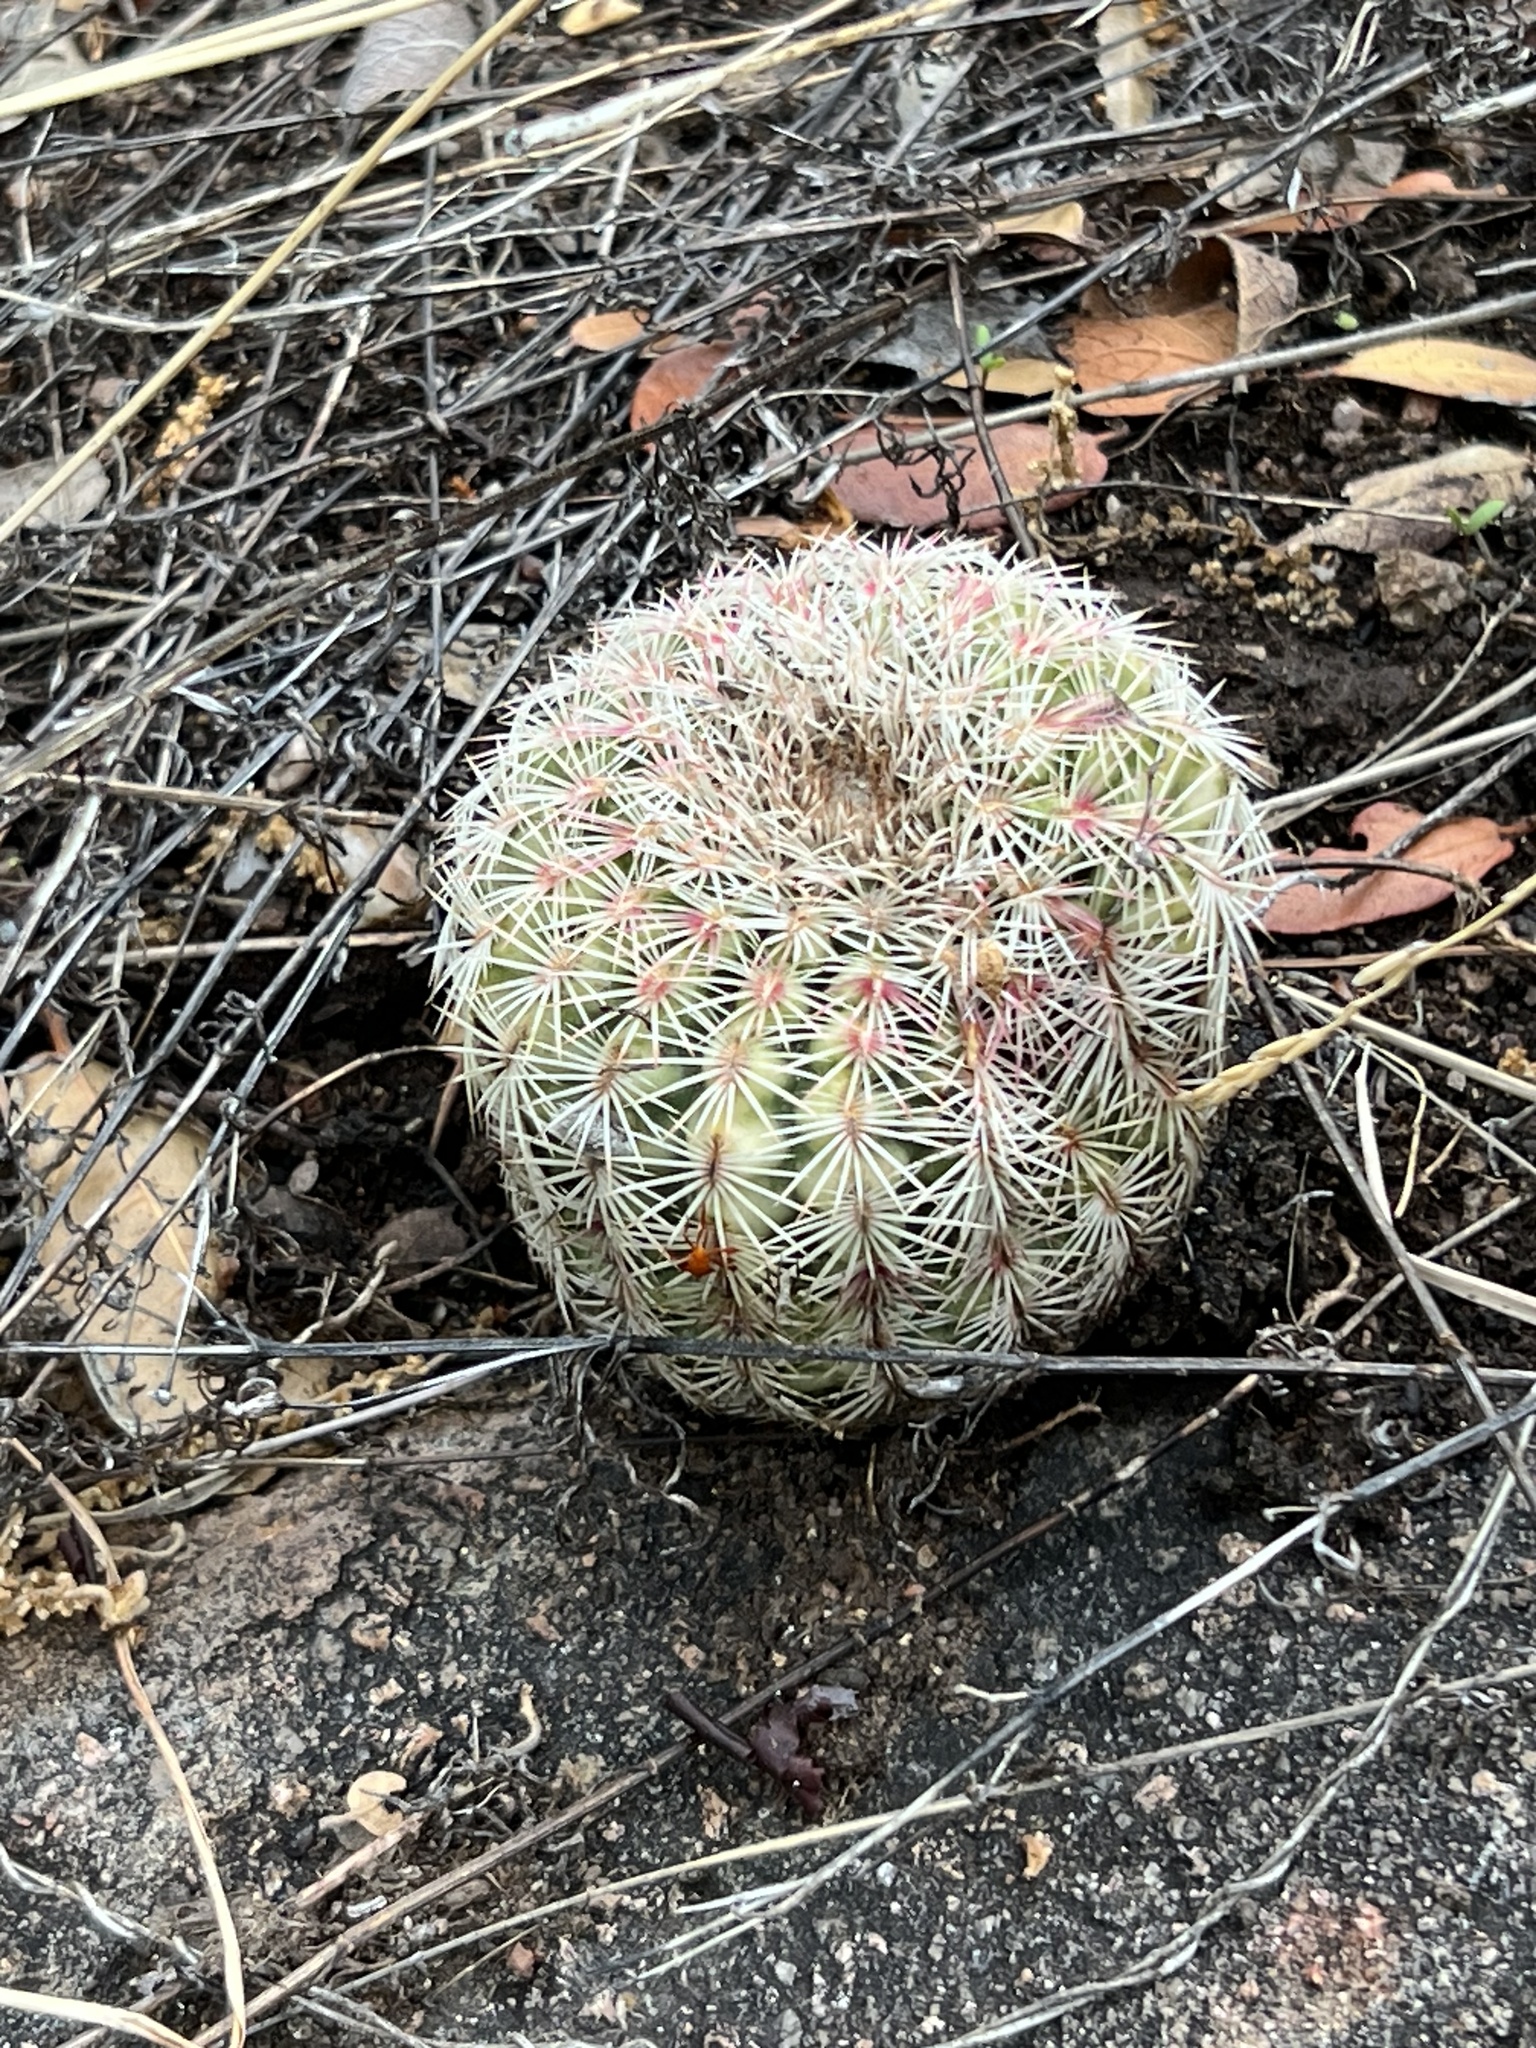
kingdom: Plantae
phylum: Tracheophyta
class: Magnoliopsida
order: Caryophyllales
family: Cactaceae
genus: Echinocereus
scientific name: Echinocereus rigidissimus
